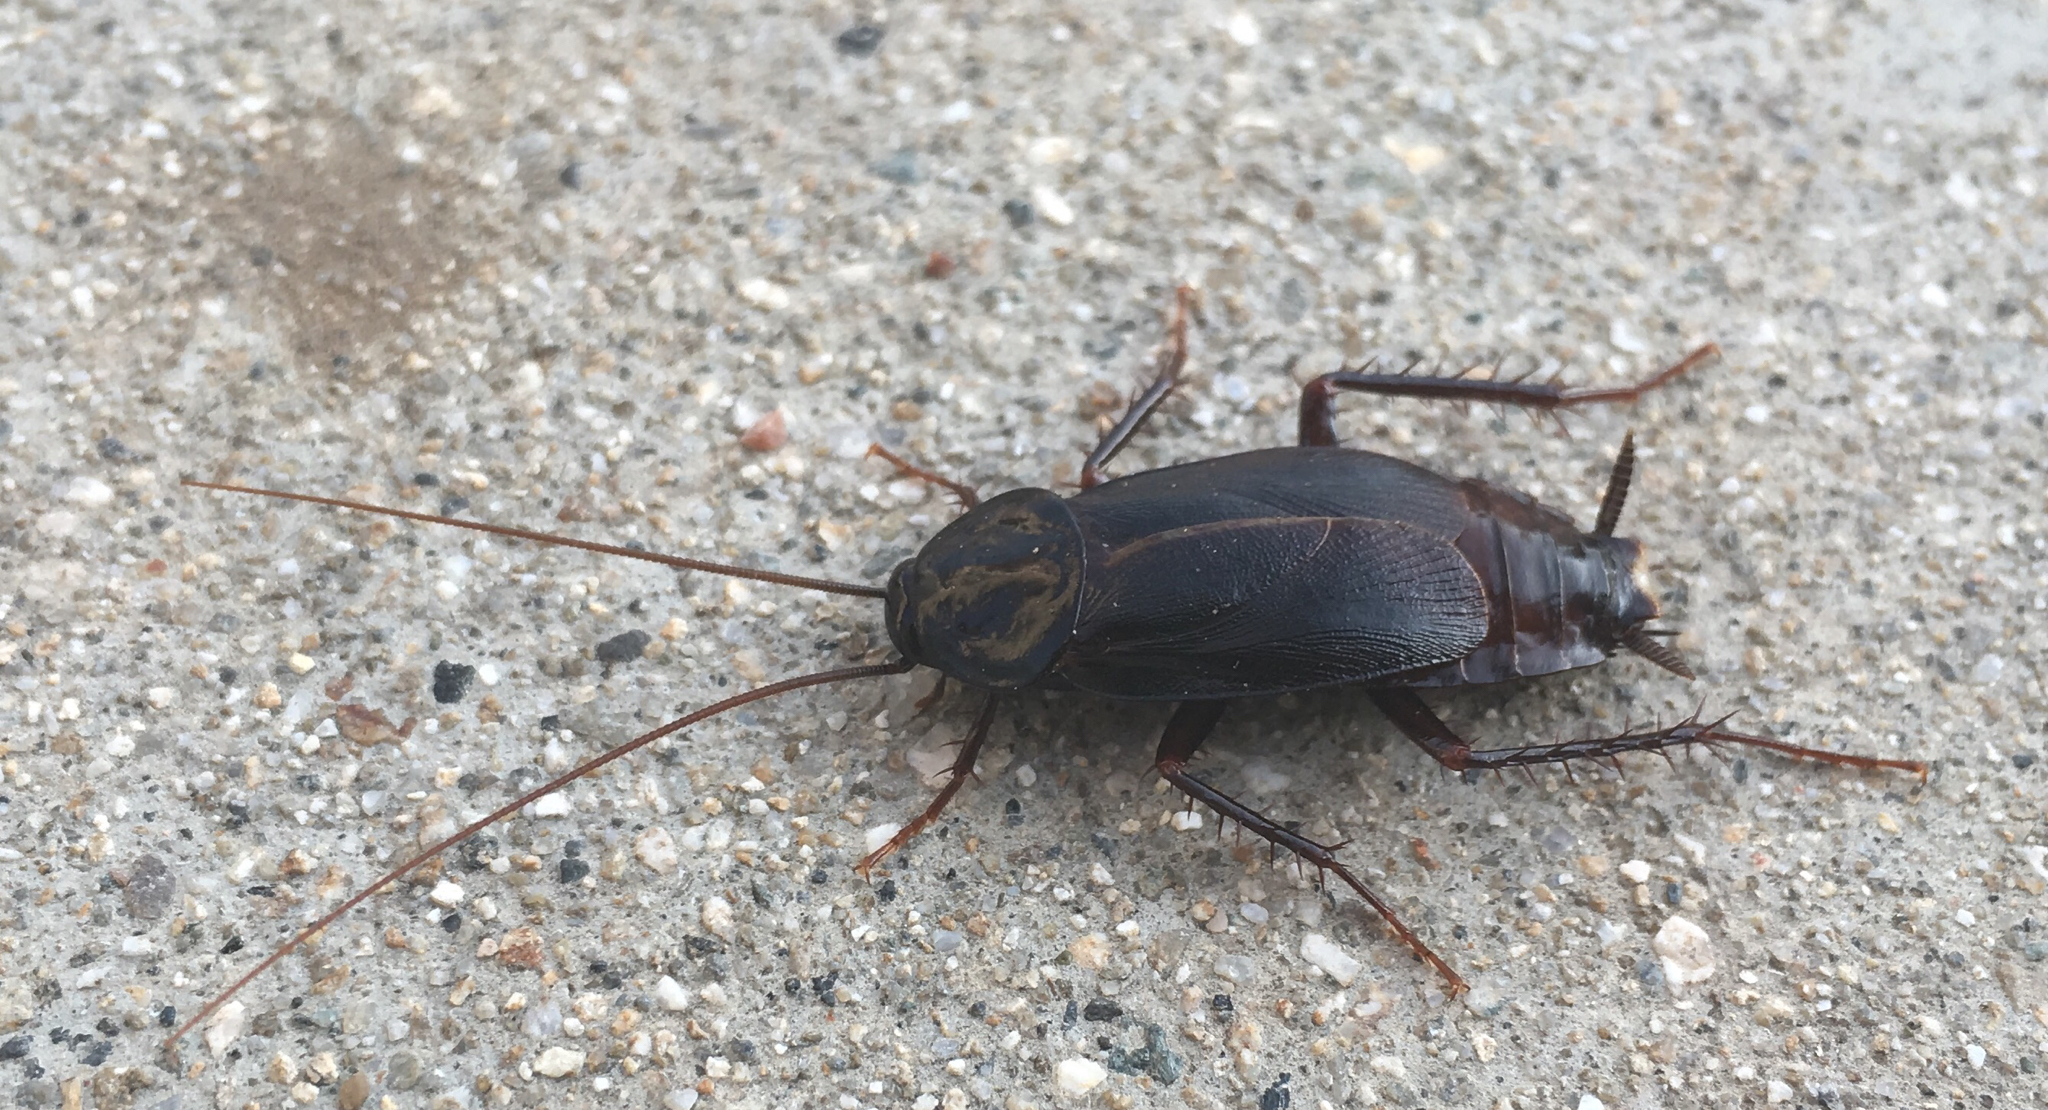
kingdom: Animalia
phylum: Arthropoda
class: Insecta
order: Blattodea
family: Blattidae
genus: Blatta
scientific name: Blatta orientalis
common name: Oriental cockroach
